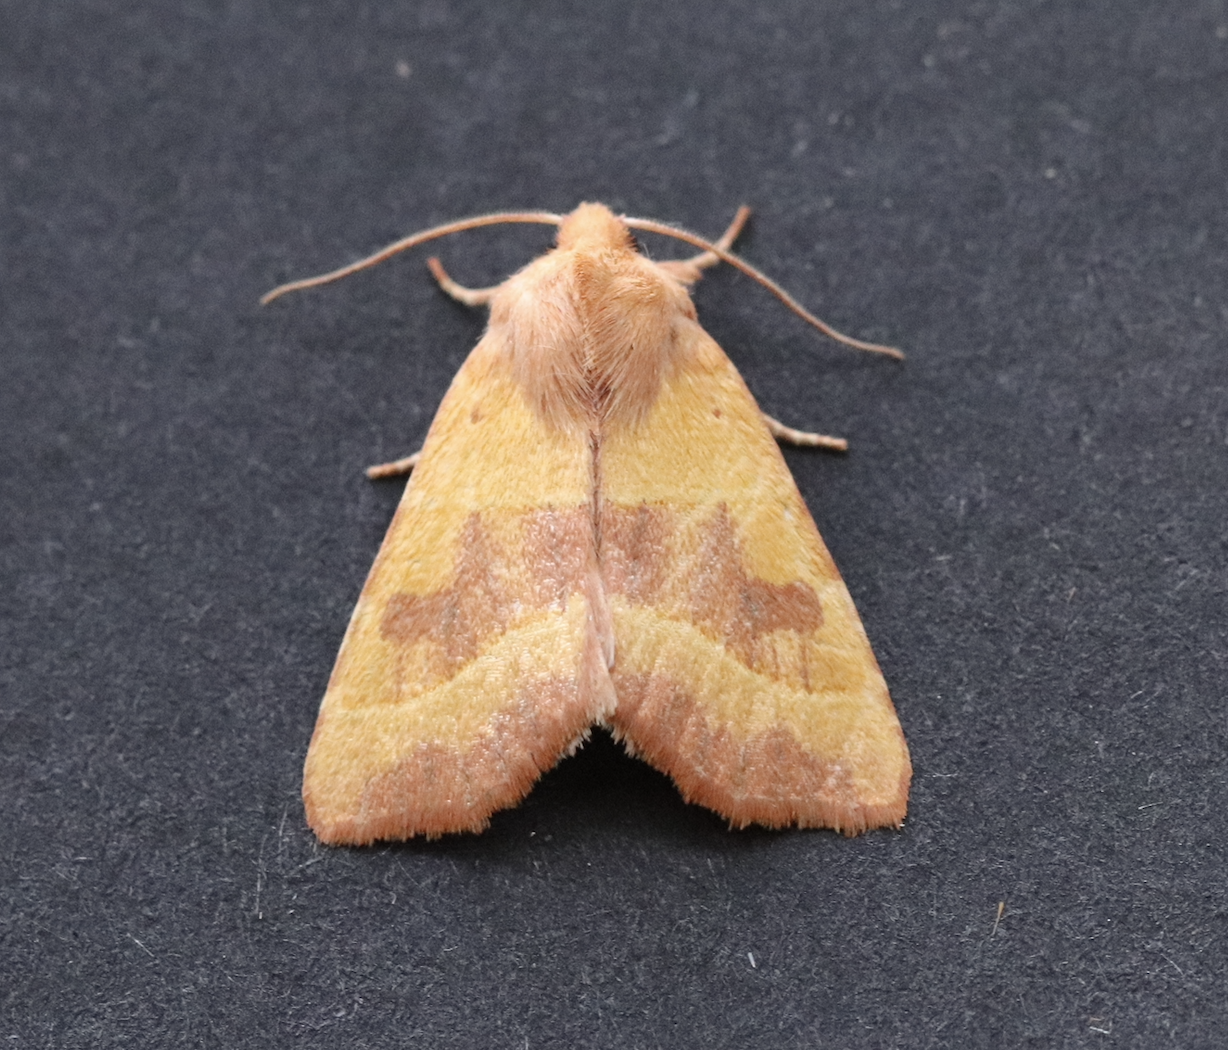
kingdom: Animalia
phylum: Arthropoda
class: Insecta
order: Lepidoptera
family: Noctuidae
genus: Atethmia
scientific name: Atethmia centrago
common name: Centre-barred sallow
